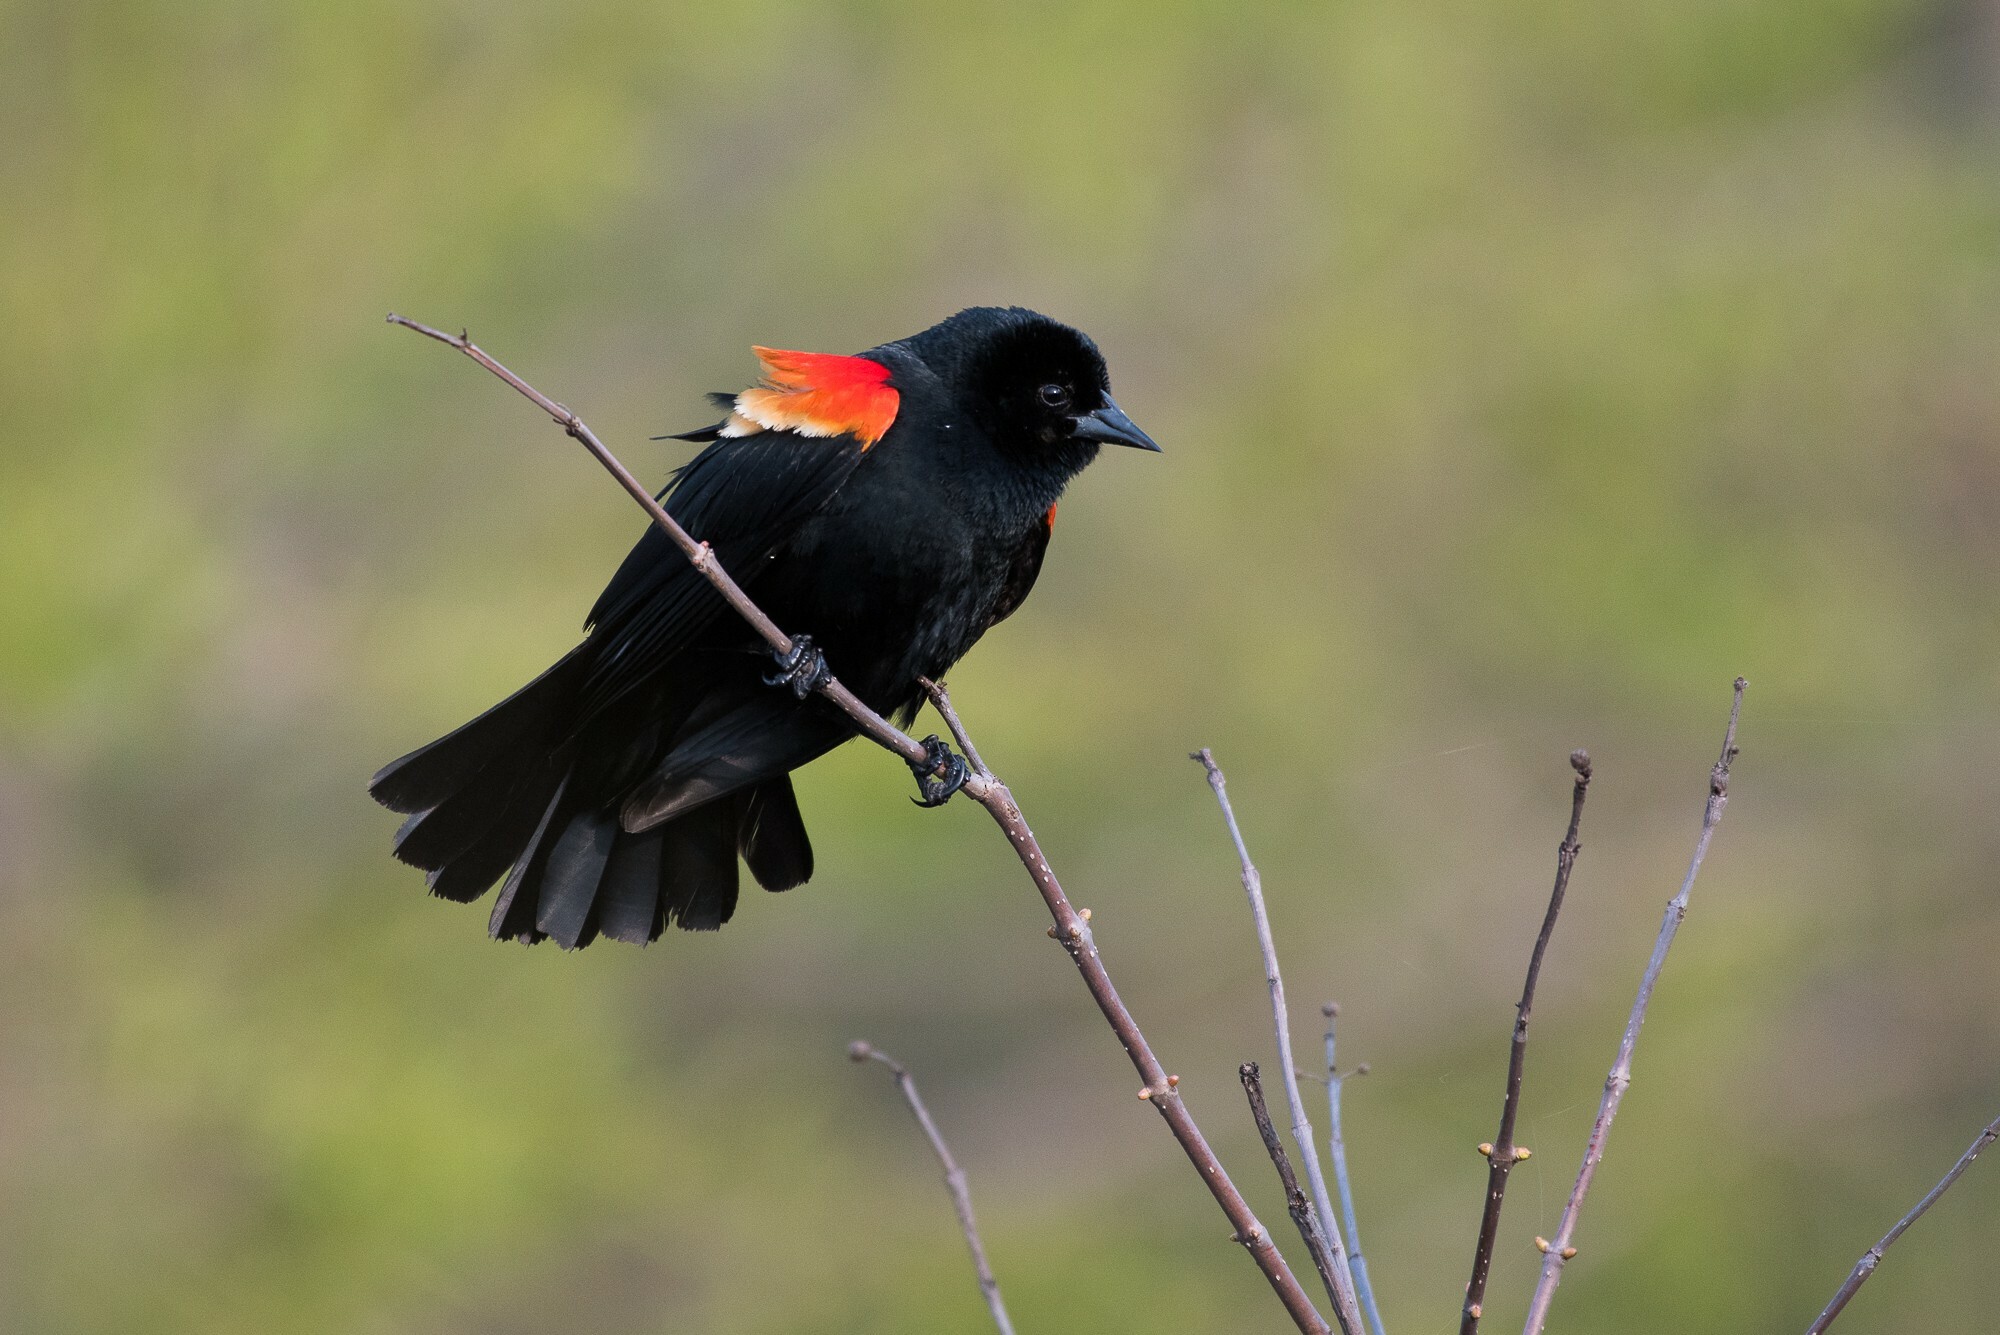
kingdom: Animalia
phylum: Chordata
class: Aves
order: Passeriformes
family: Icteridae
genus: Agelaius
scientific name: Agelaius phoeniceus
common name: Red-winged blackbird
